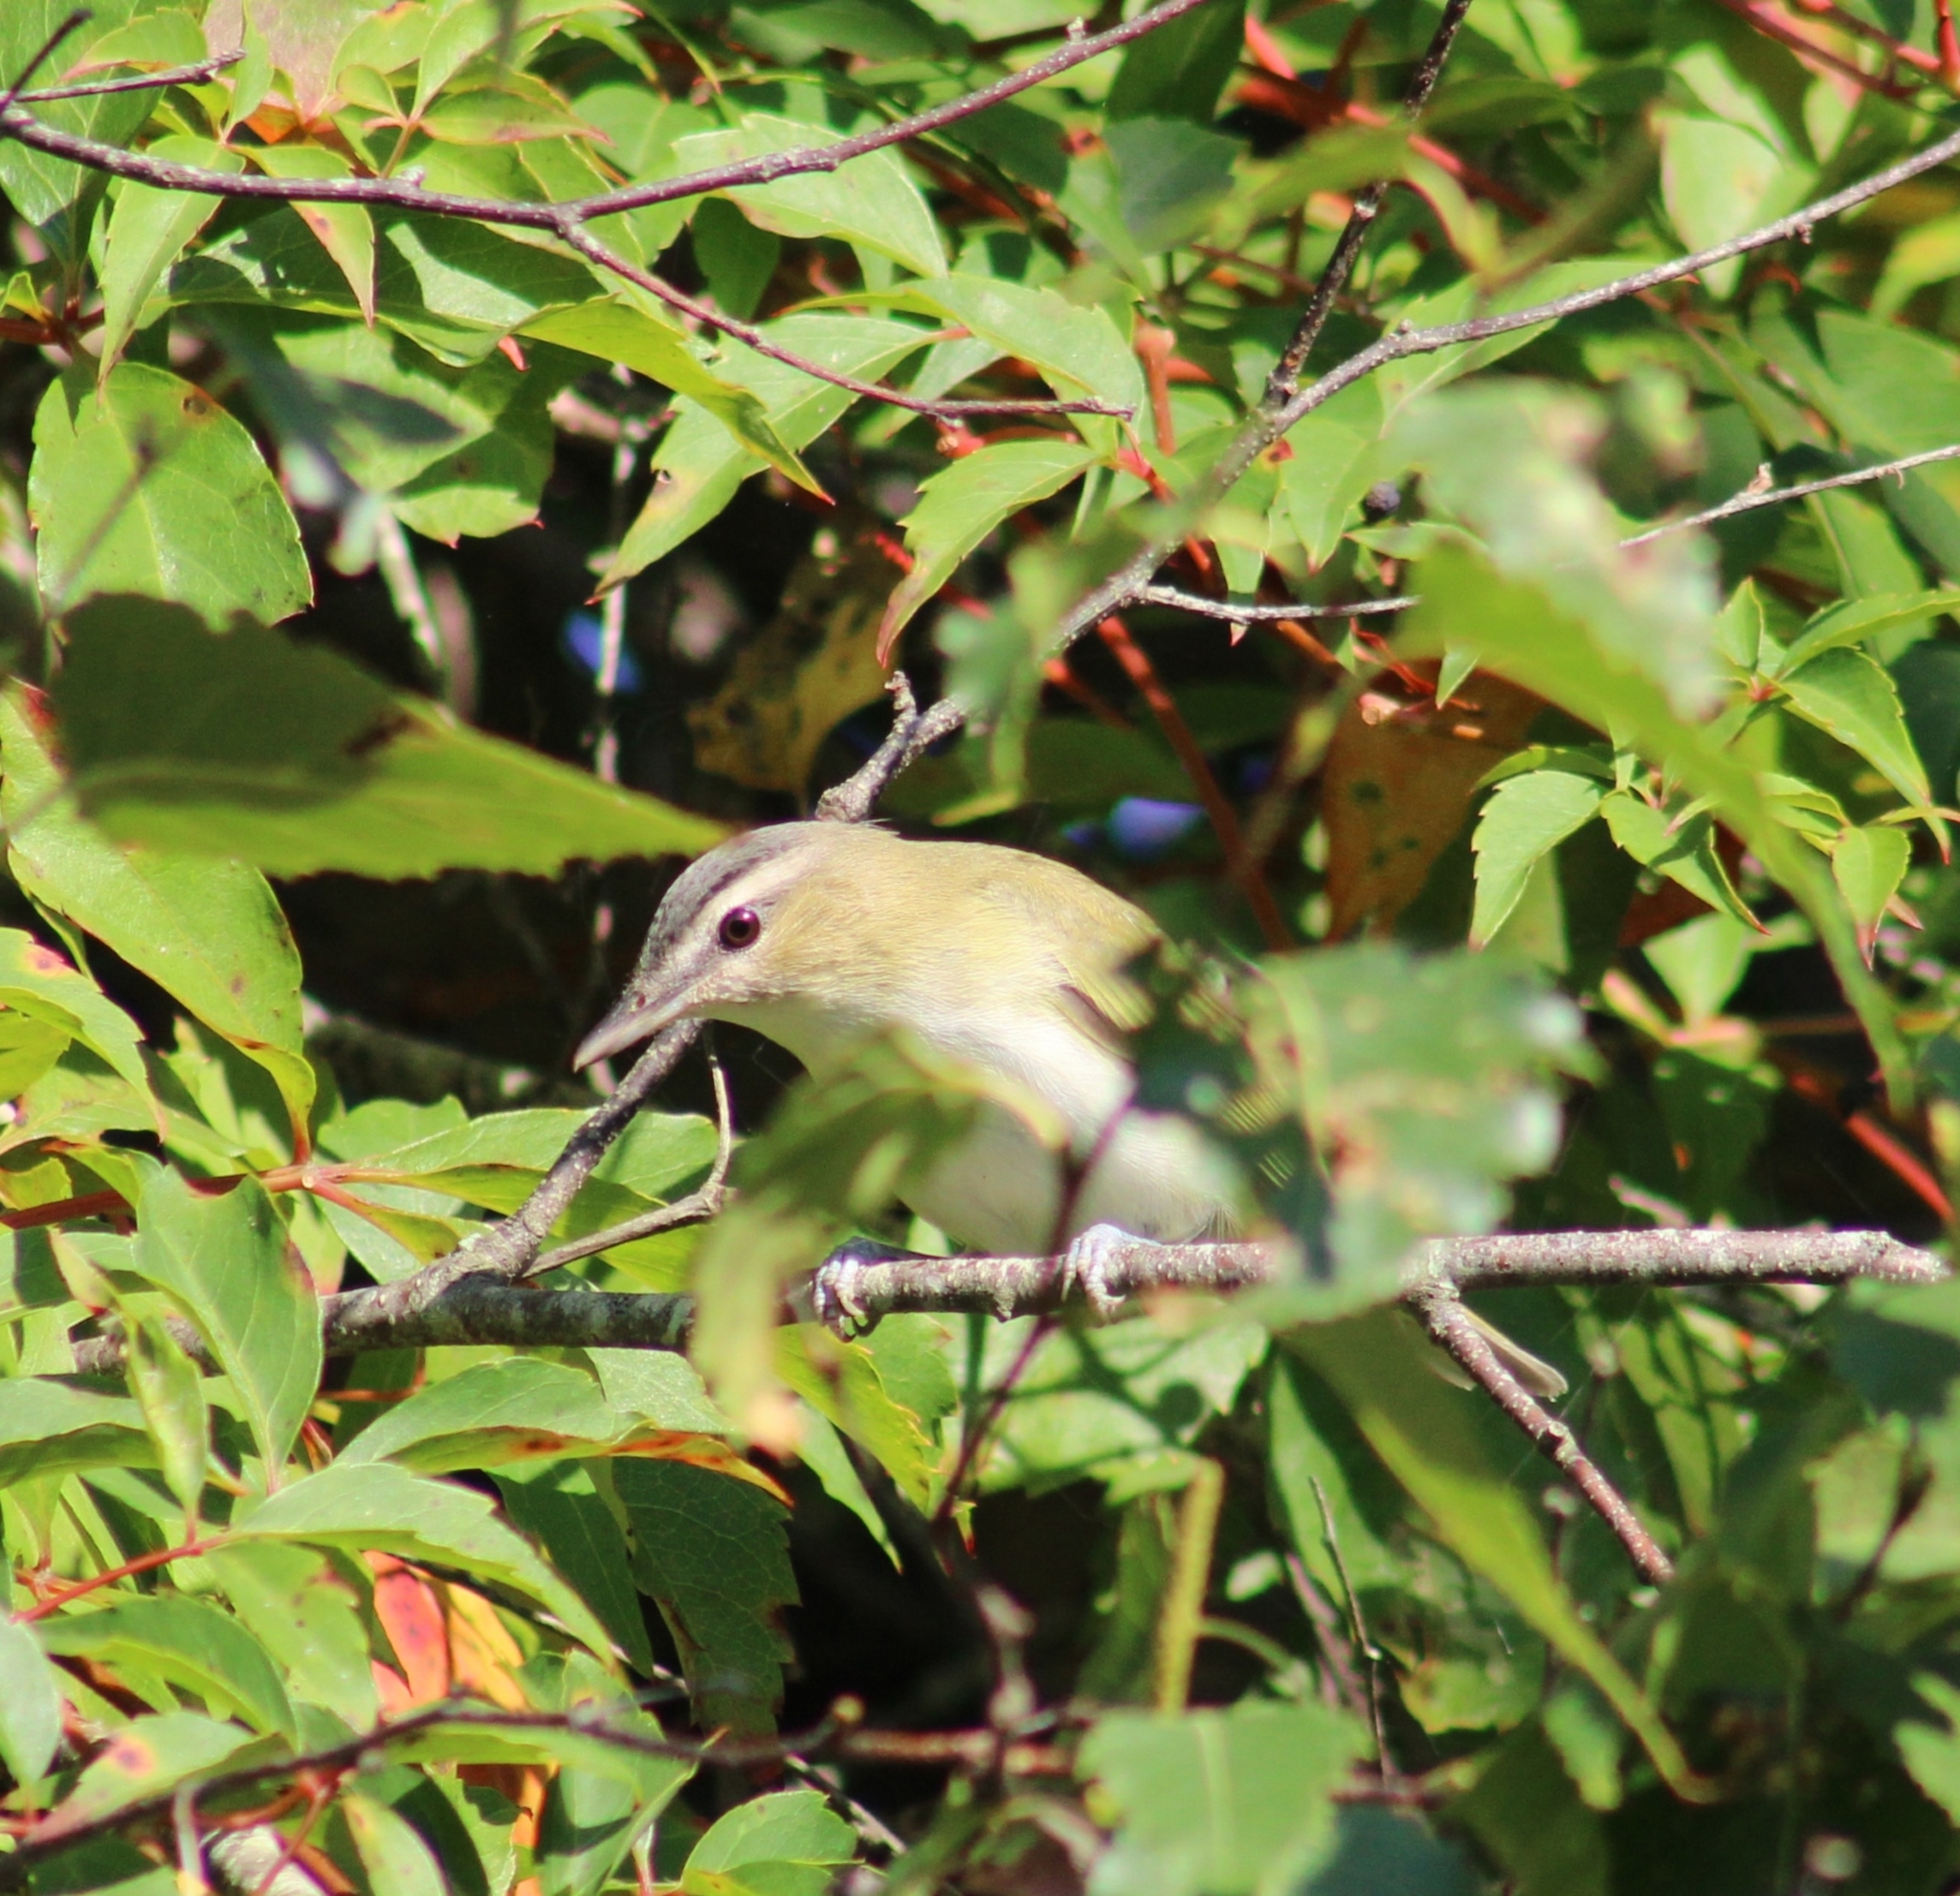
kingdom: Animalia
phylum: Chordata
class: Aves
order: Passeriformes
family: Vireonidae
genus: Vireo
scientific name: Vireo olivaceus
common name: Red-eyed vireo
